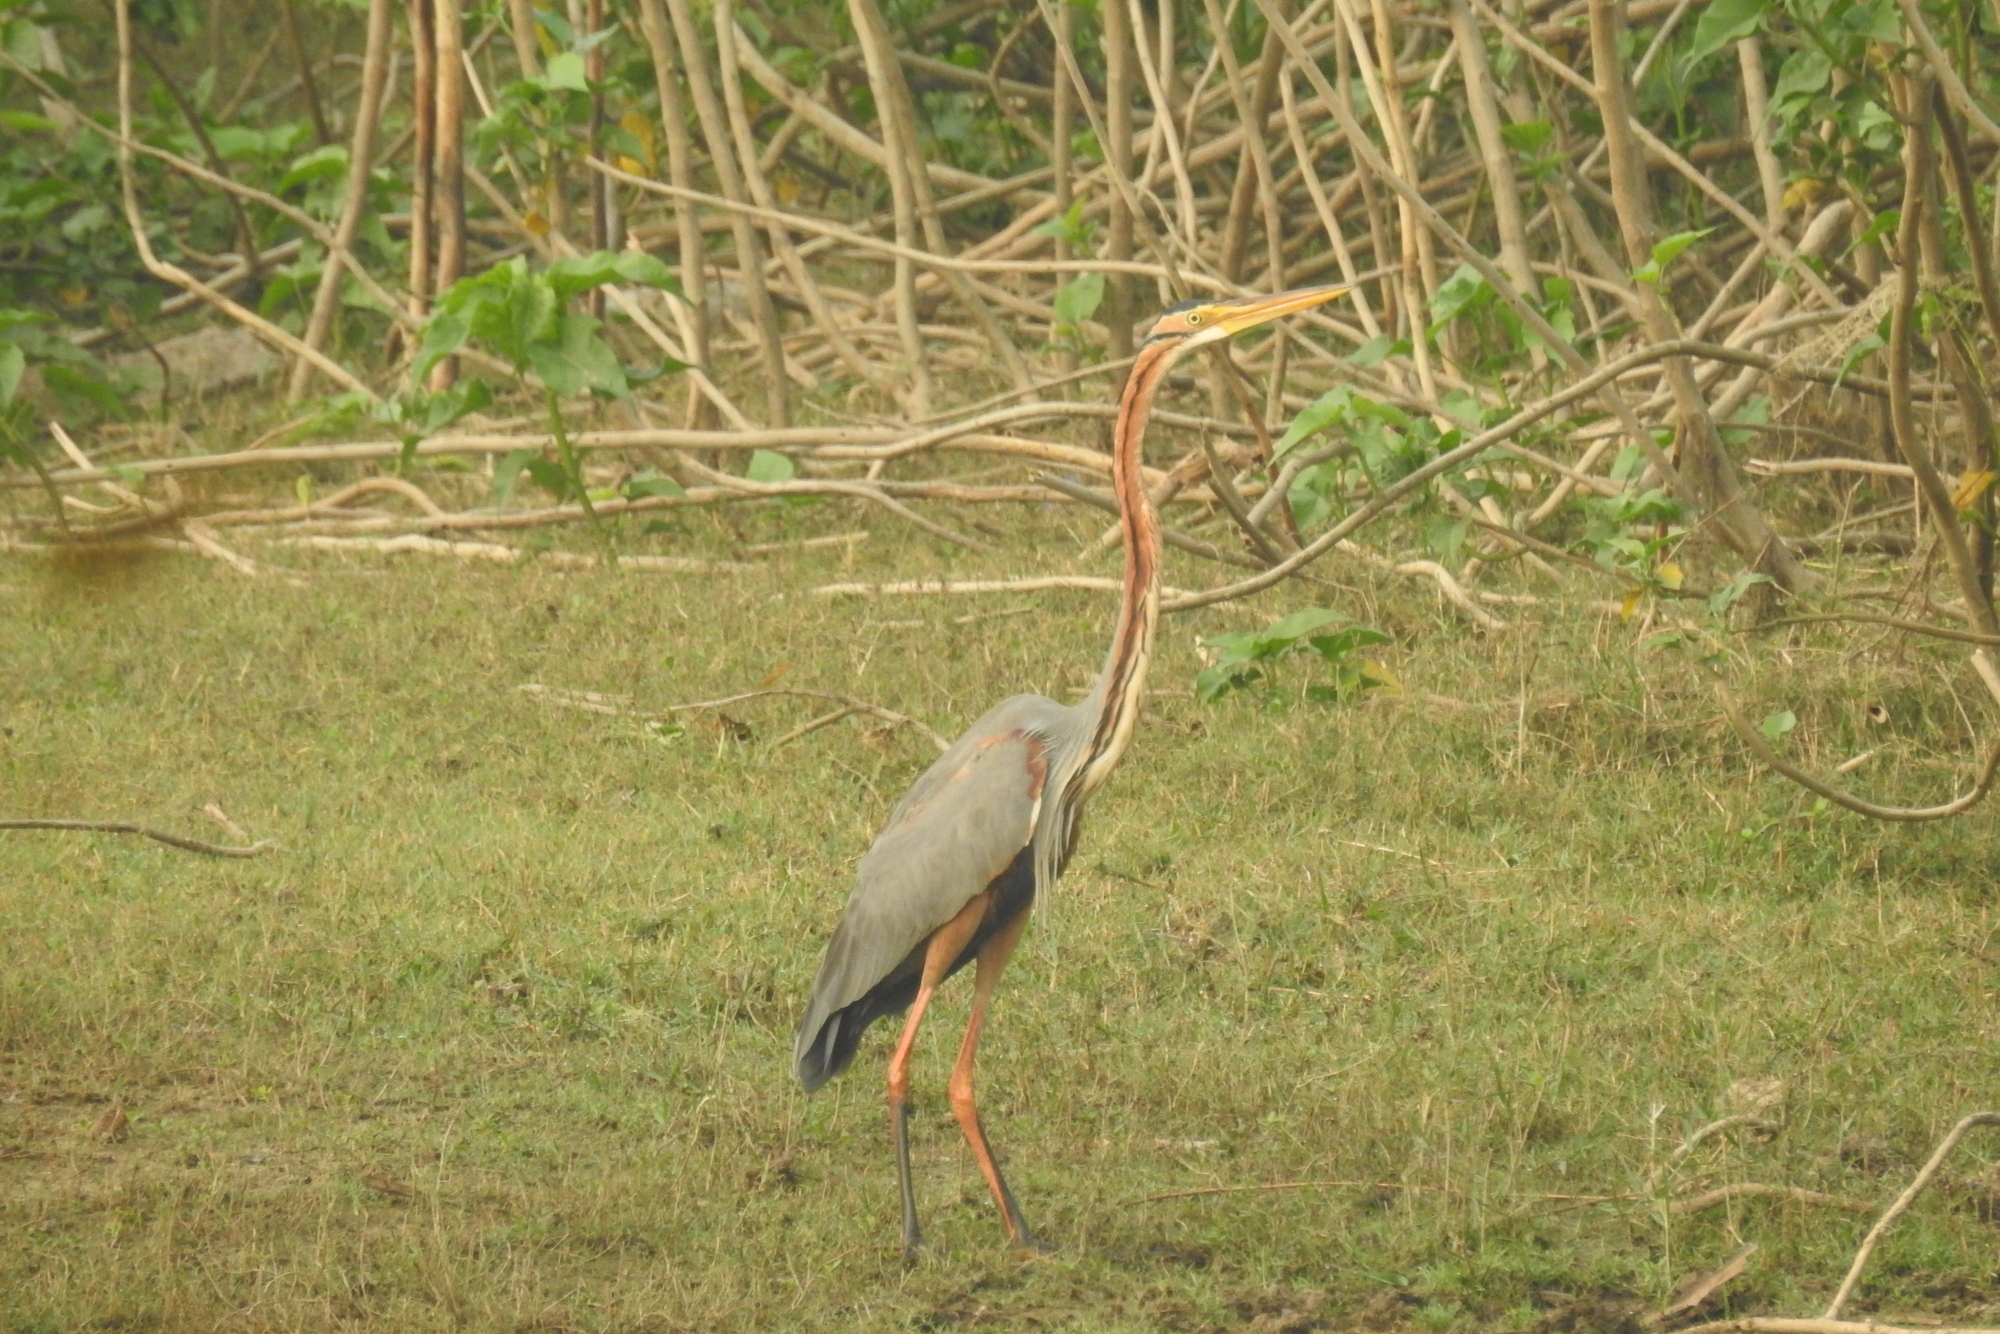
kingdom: Animalia
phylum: Chordata
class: Aves
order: Pelecaniformes
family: Ardeidae
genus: Ardea
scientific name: Ardea purpurea
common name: Purple heron
